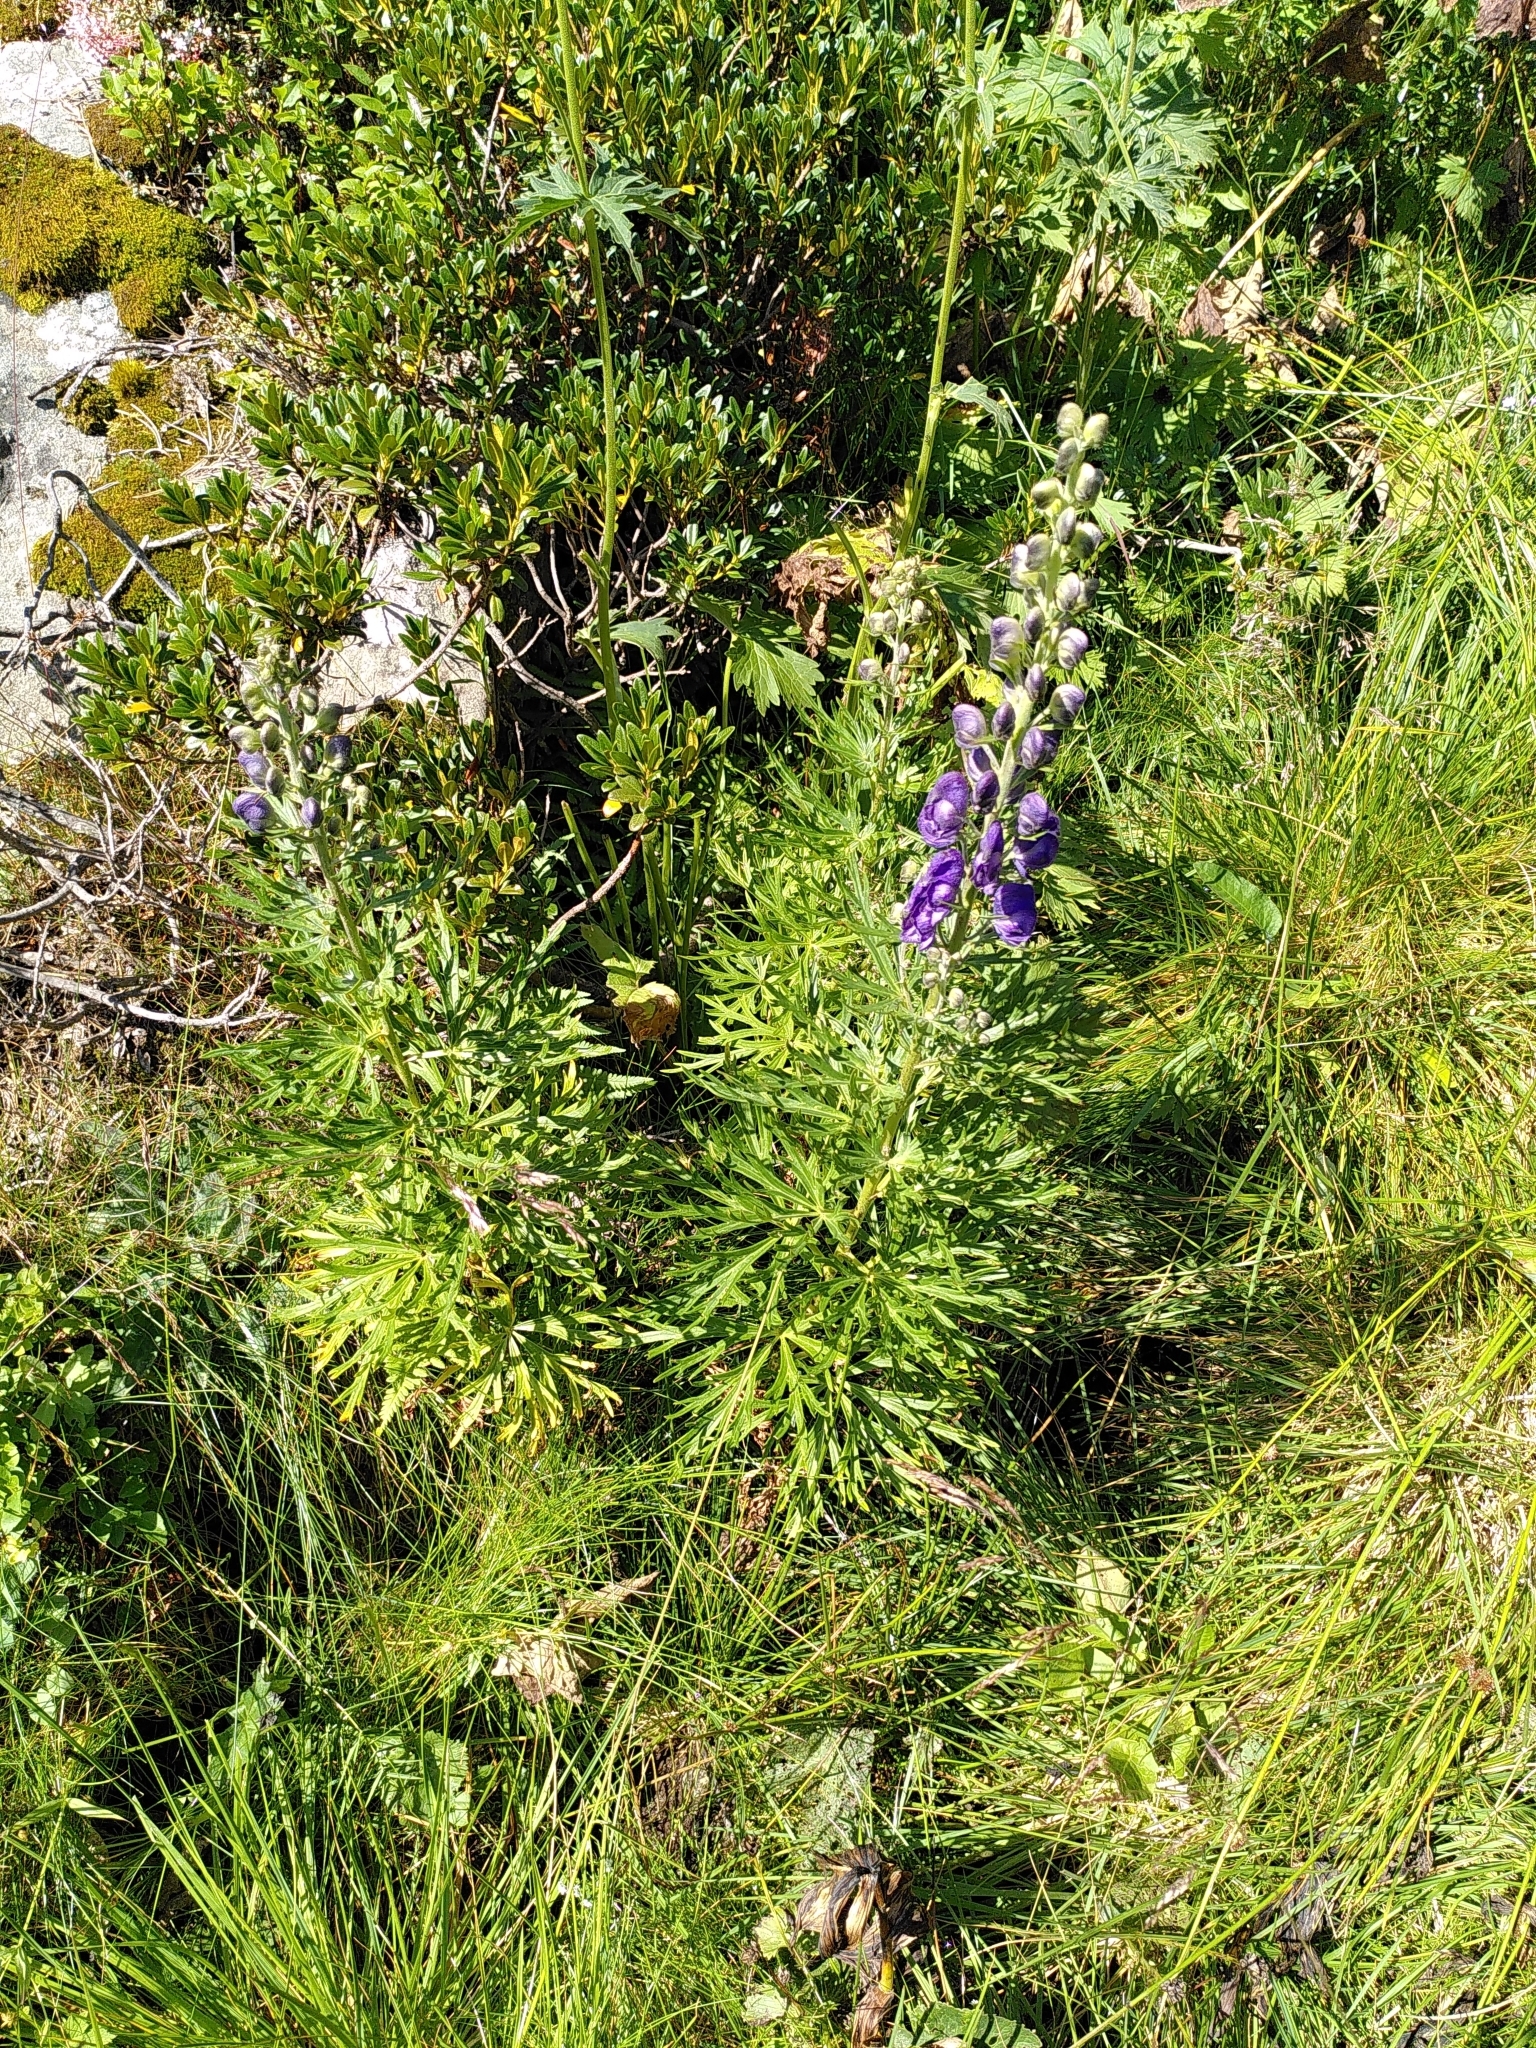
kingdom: Plantae
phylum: Tracheophyta
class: Magnoliopsida
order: Ranunculales
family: Ranunculaceae
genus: Aconitum
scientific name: Aconitum napellus
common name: Garden monkshood
